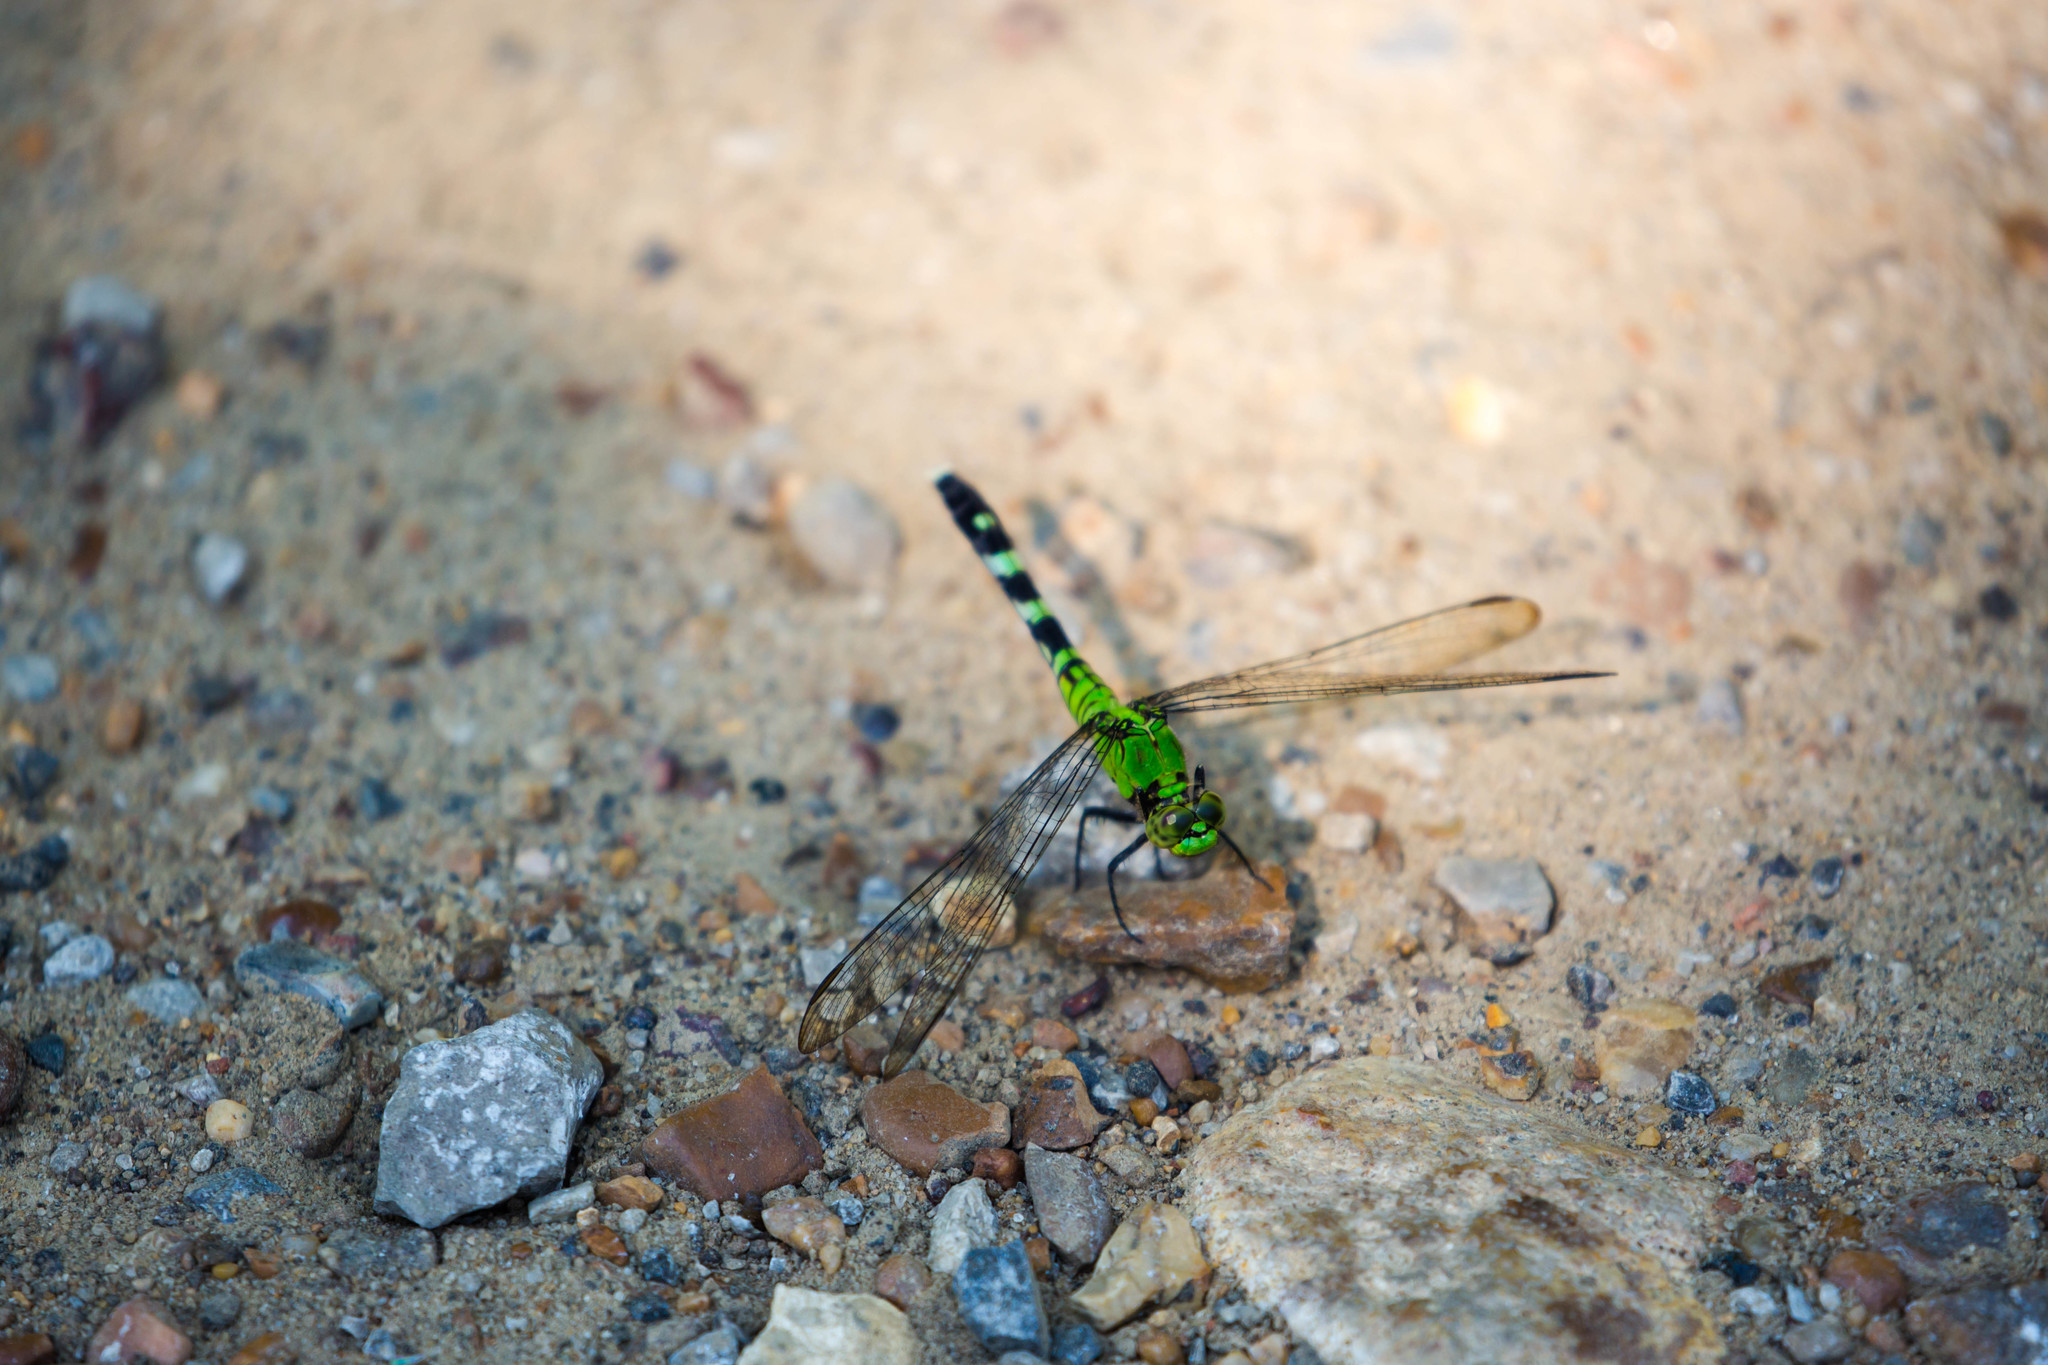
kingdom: Animalia
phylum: Arthropoda
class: Insecta
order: Odonata
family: Libellulidae
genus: Erythemis
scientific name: Erythemis simplicicollis
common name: Eastern pondhawk
